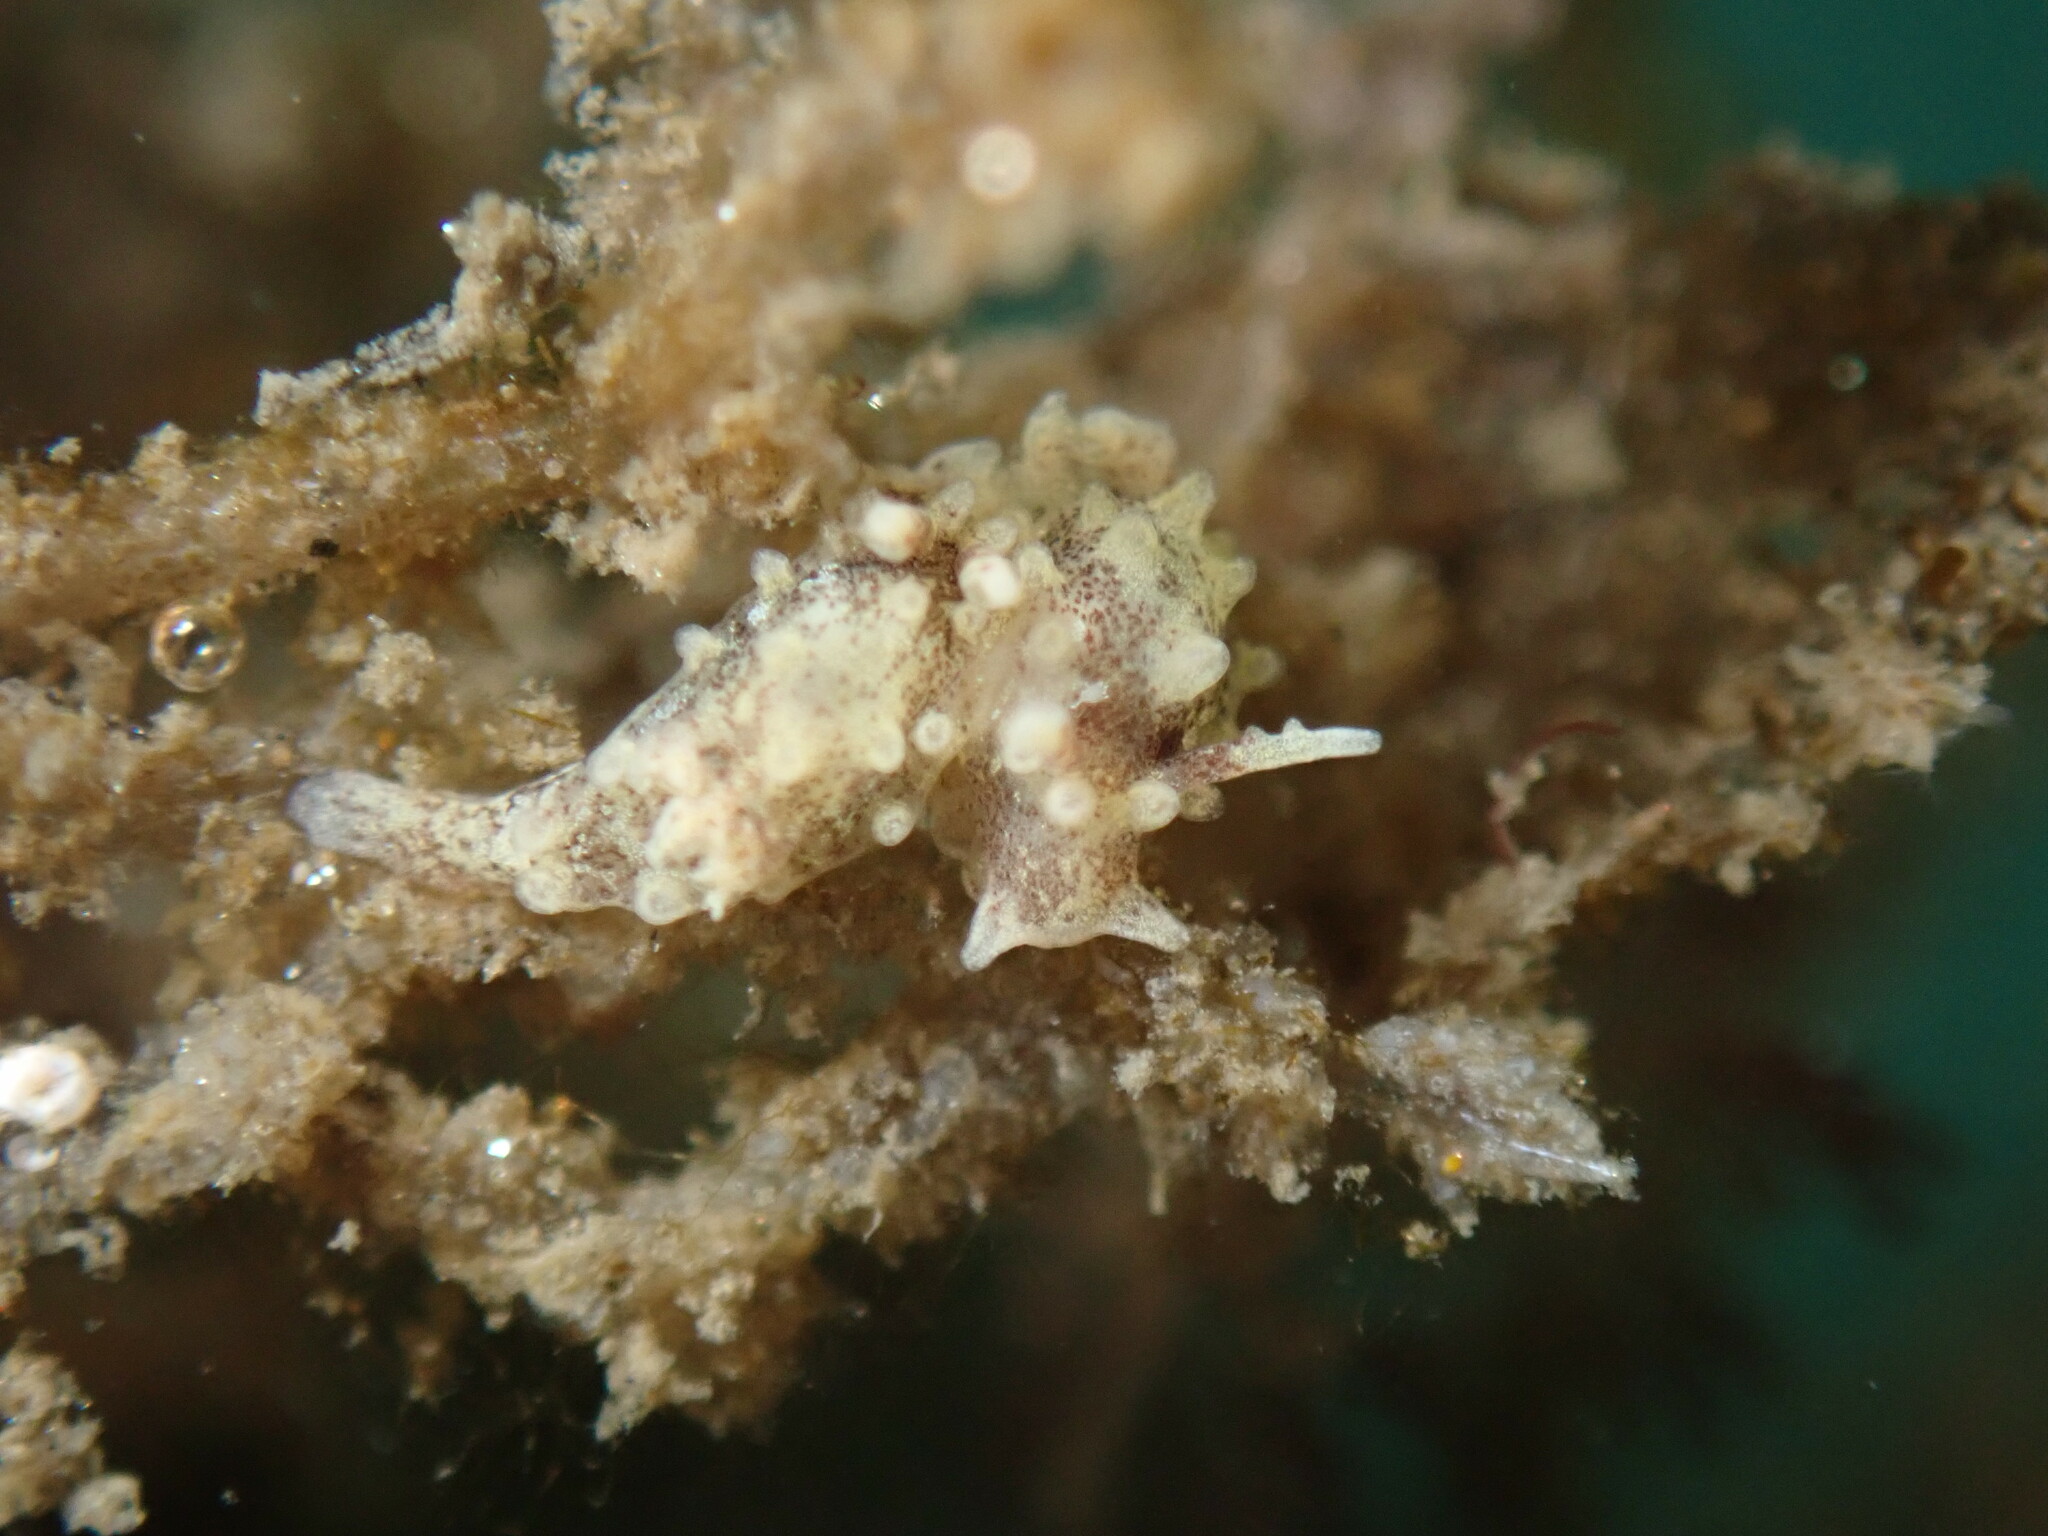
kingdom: Animalia
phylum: Mollusca
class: Gastropoda
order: Nudibranchia
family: Goniodorididae
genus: Okenia
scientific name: Okenia
